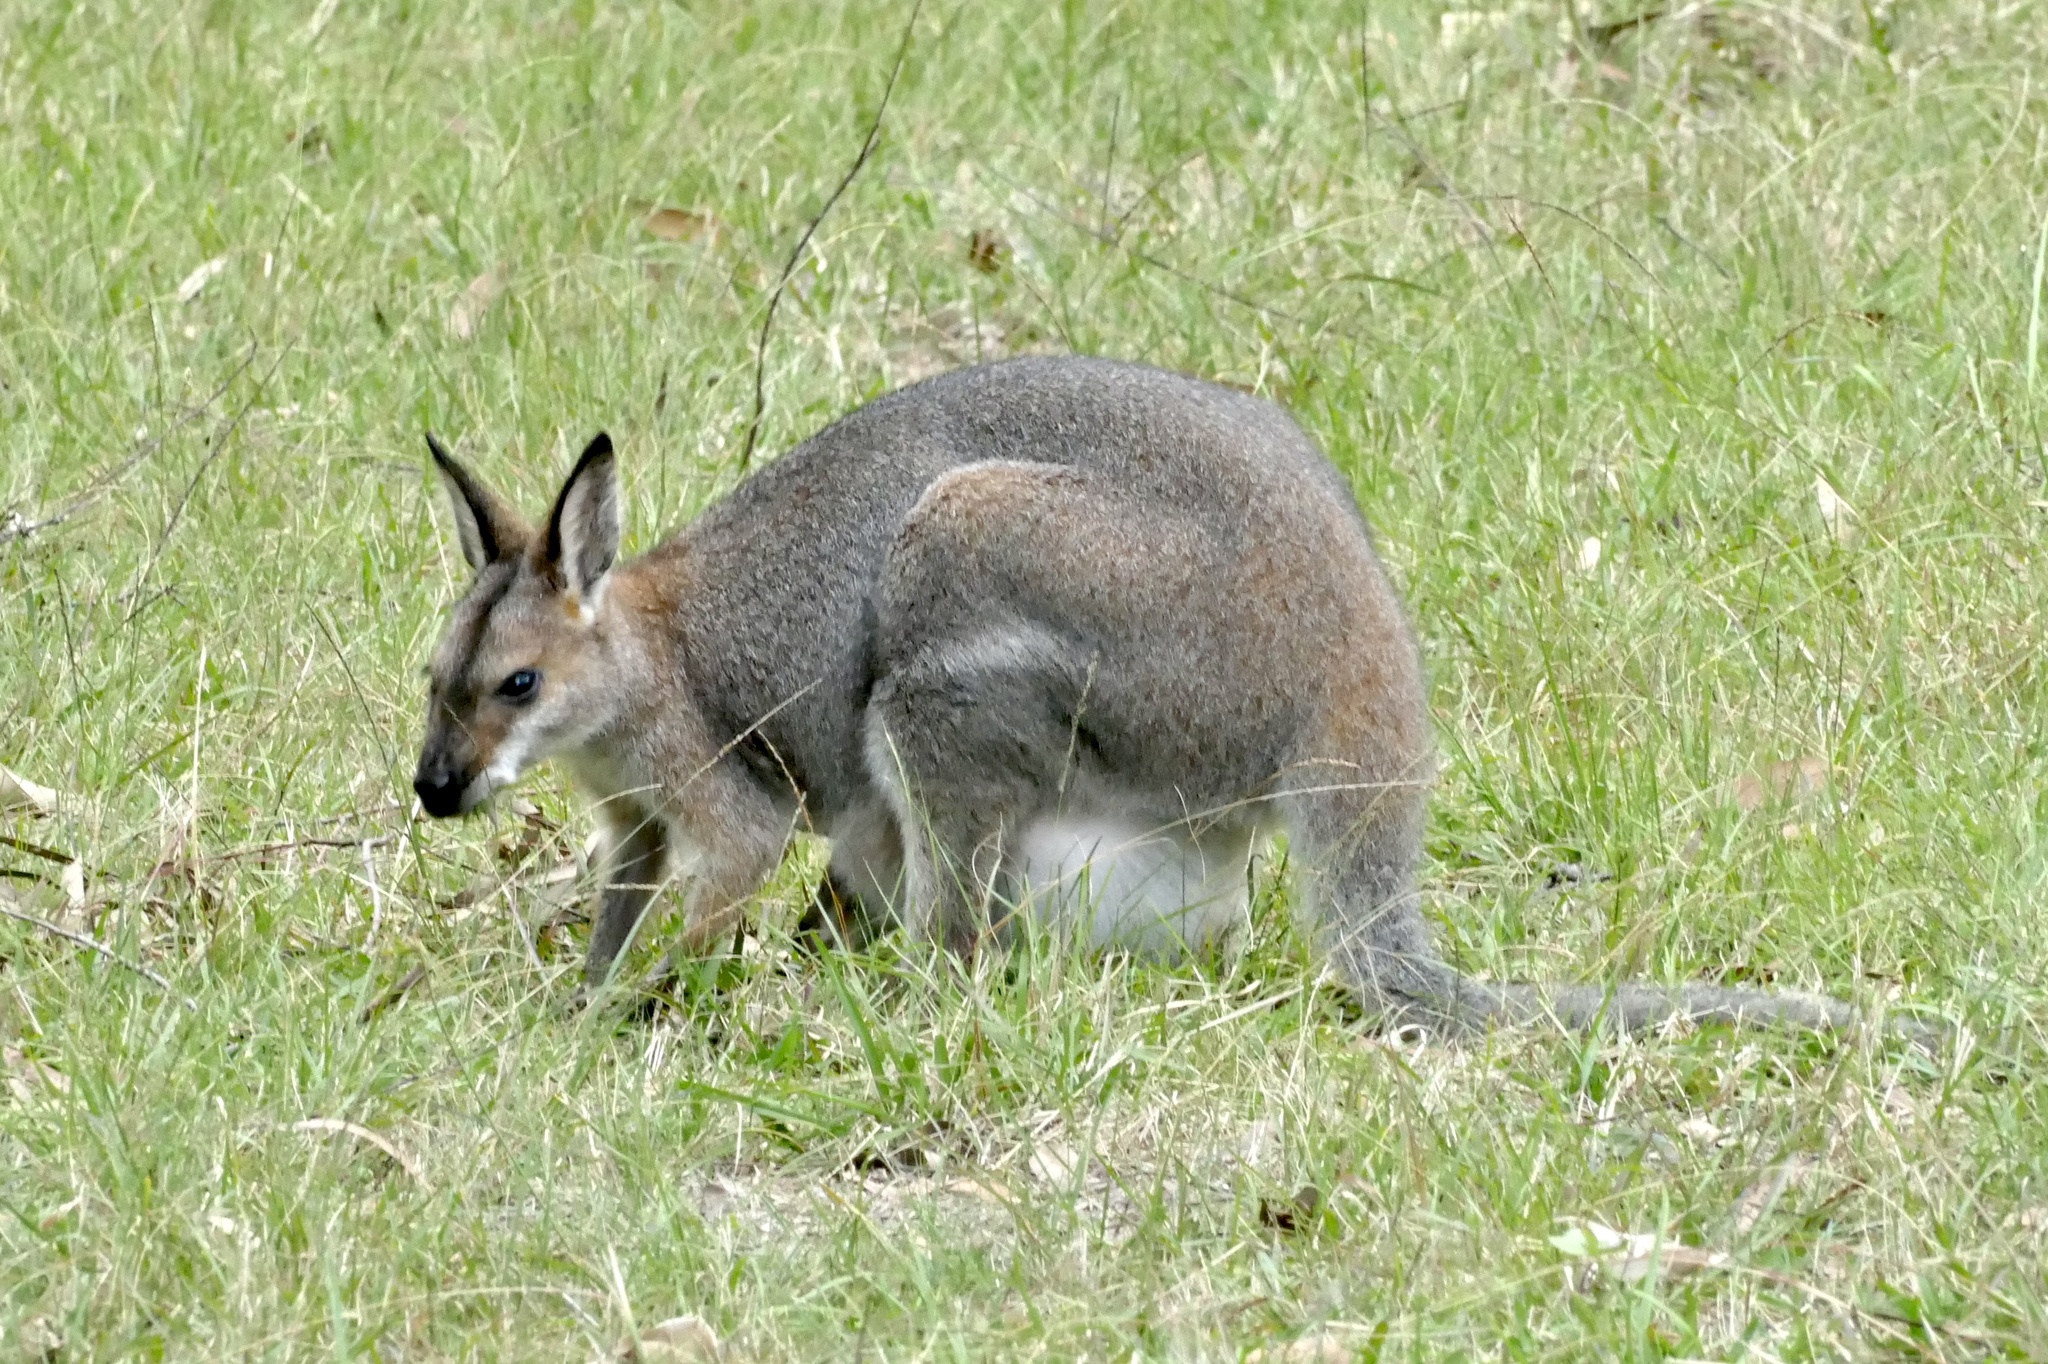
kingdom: Animalia
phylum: Chordata
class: Mammalia
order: Diprotodontia
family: Macropodidae
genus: Notamacropus
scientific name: Notamacropus rufogriseus
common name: Red-necked wallaby
